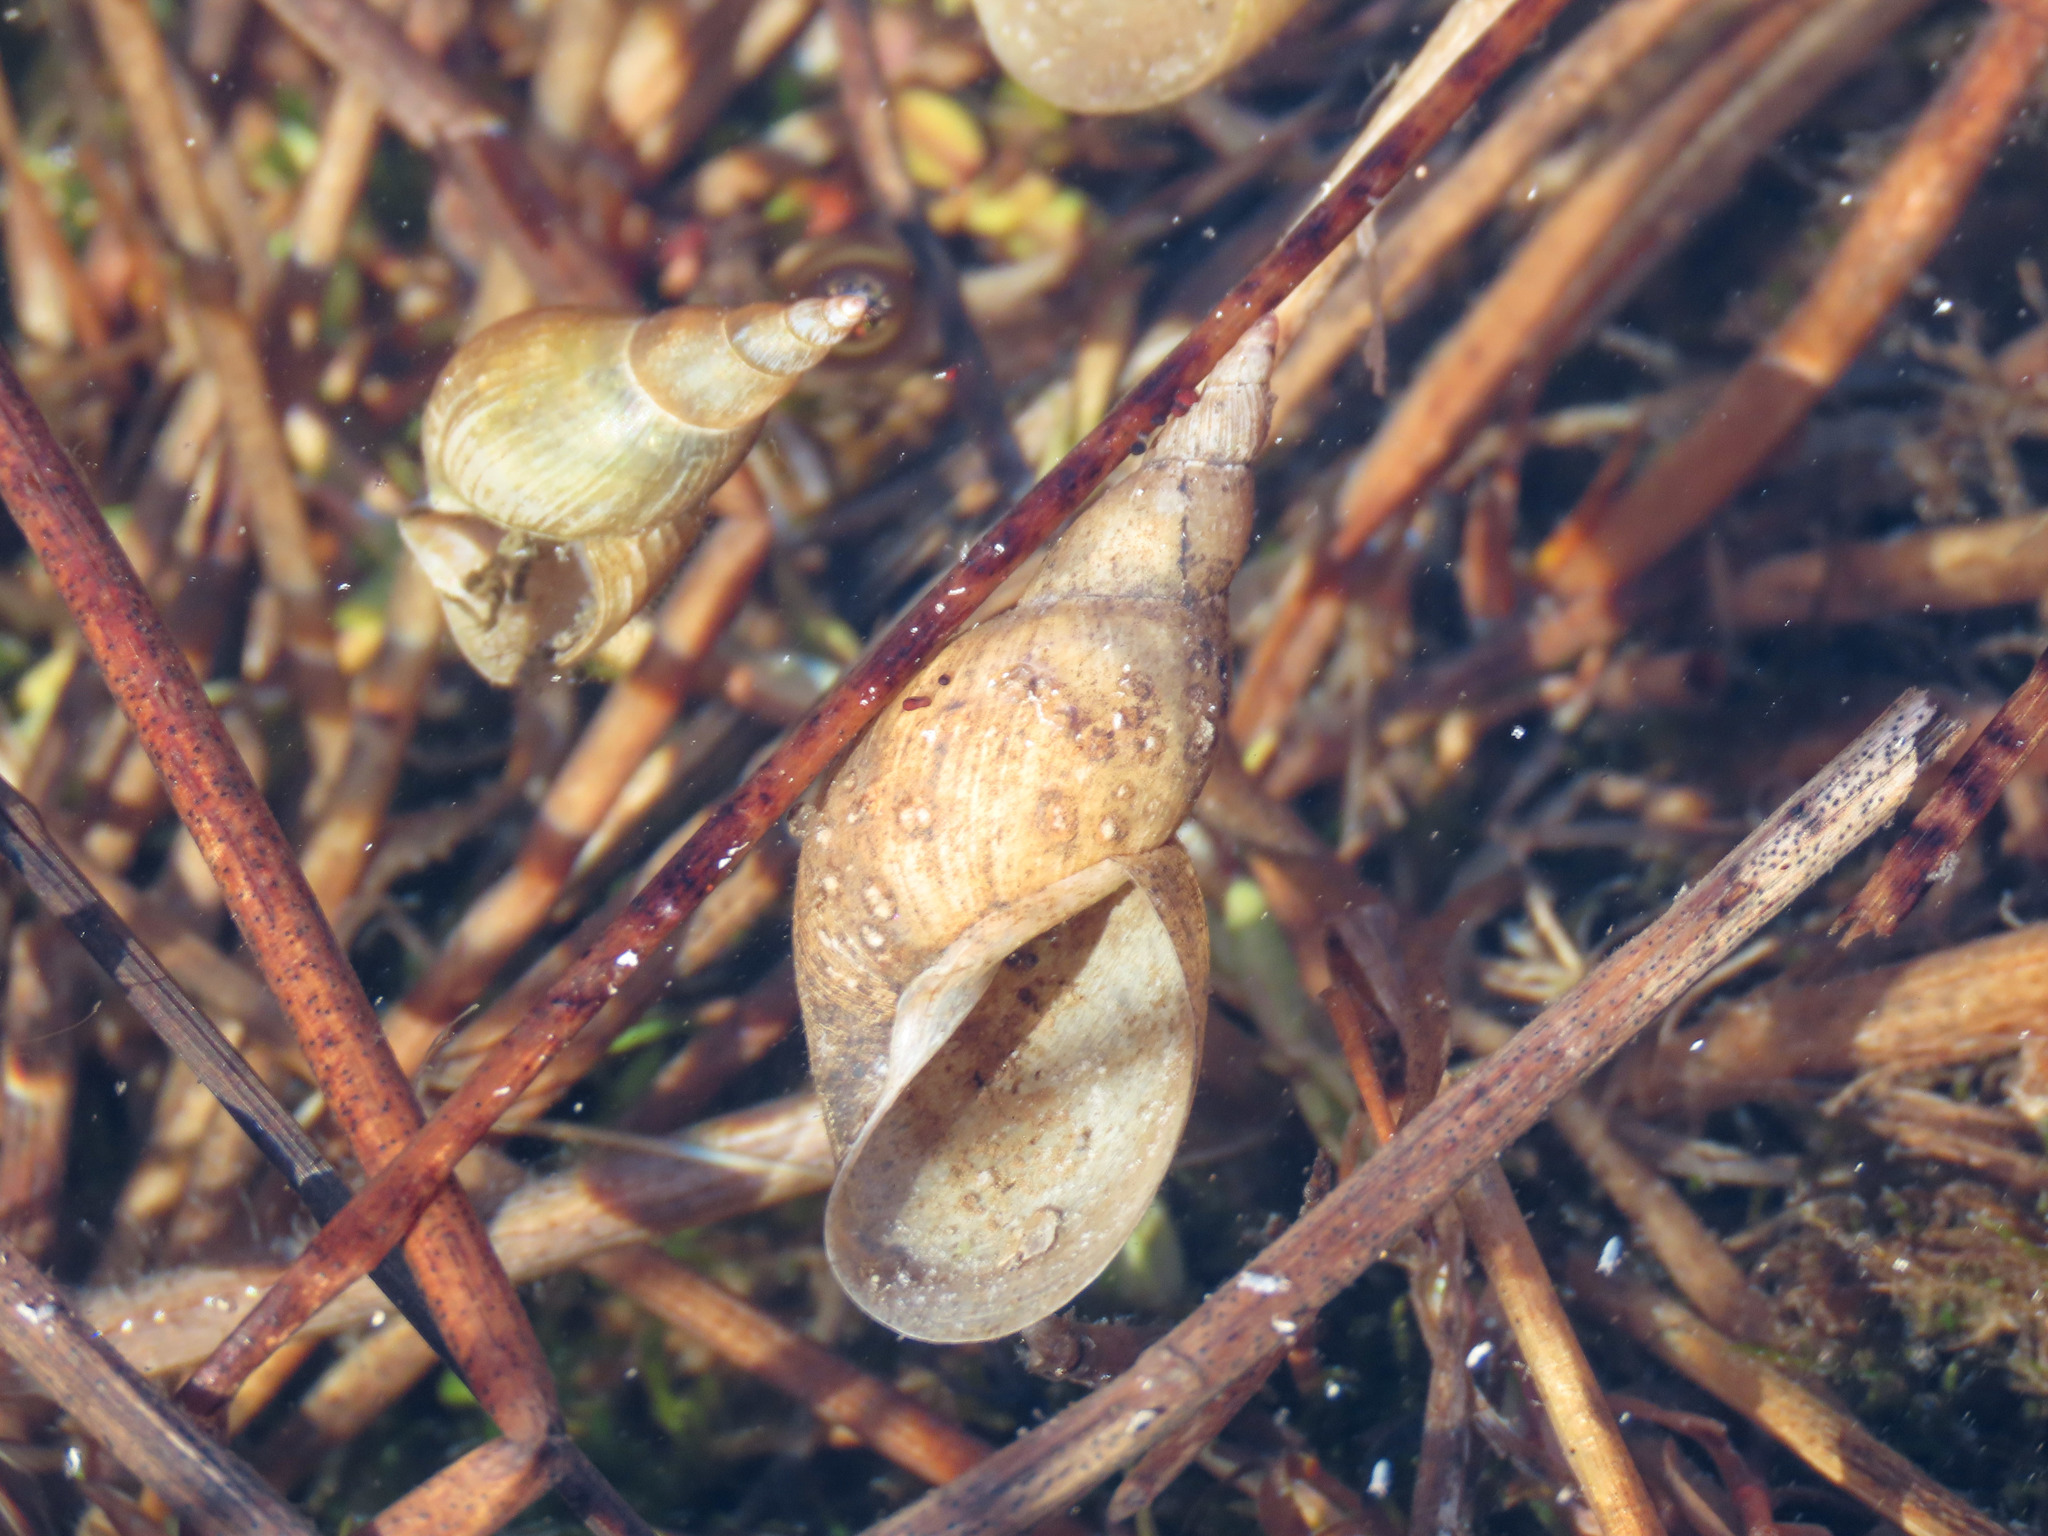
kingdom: Animalia
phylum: Mollusca
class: Gastropoda
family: Lymnaeidae
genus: Lymnaea
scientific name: Lymnaea stagnalis
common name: Great pond snail
